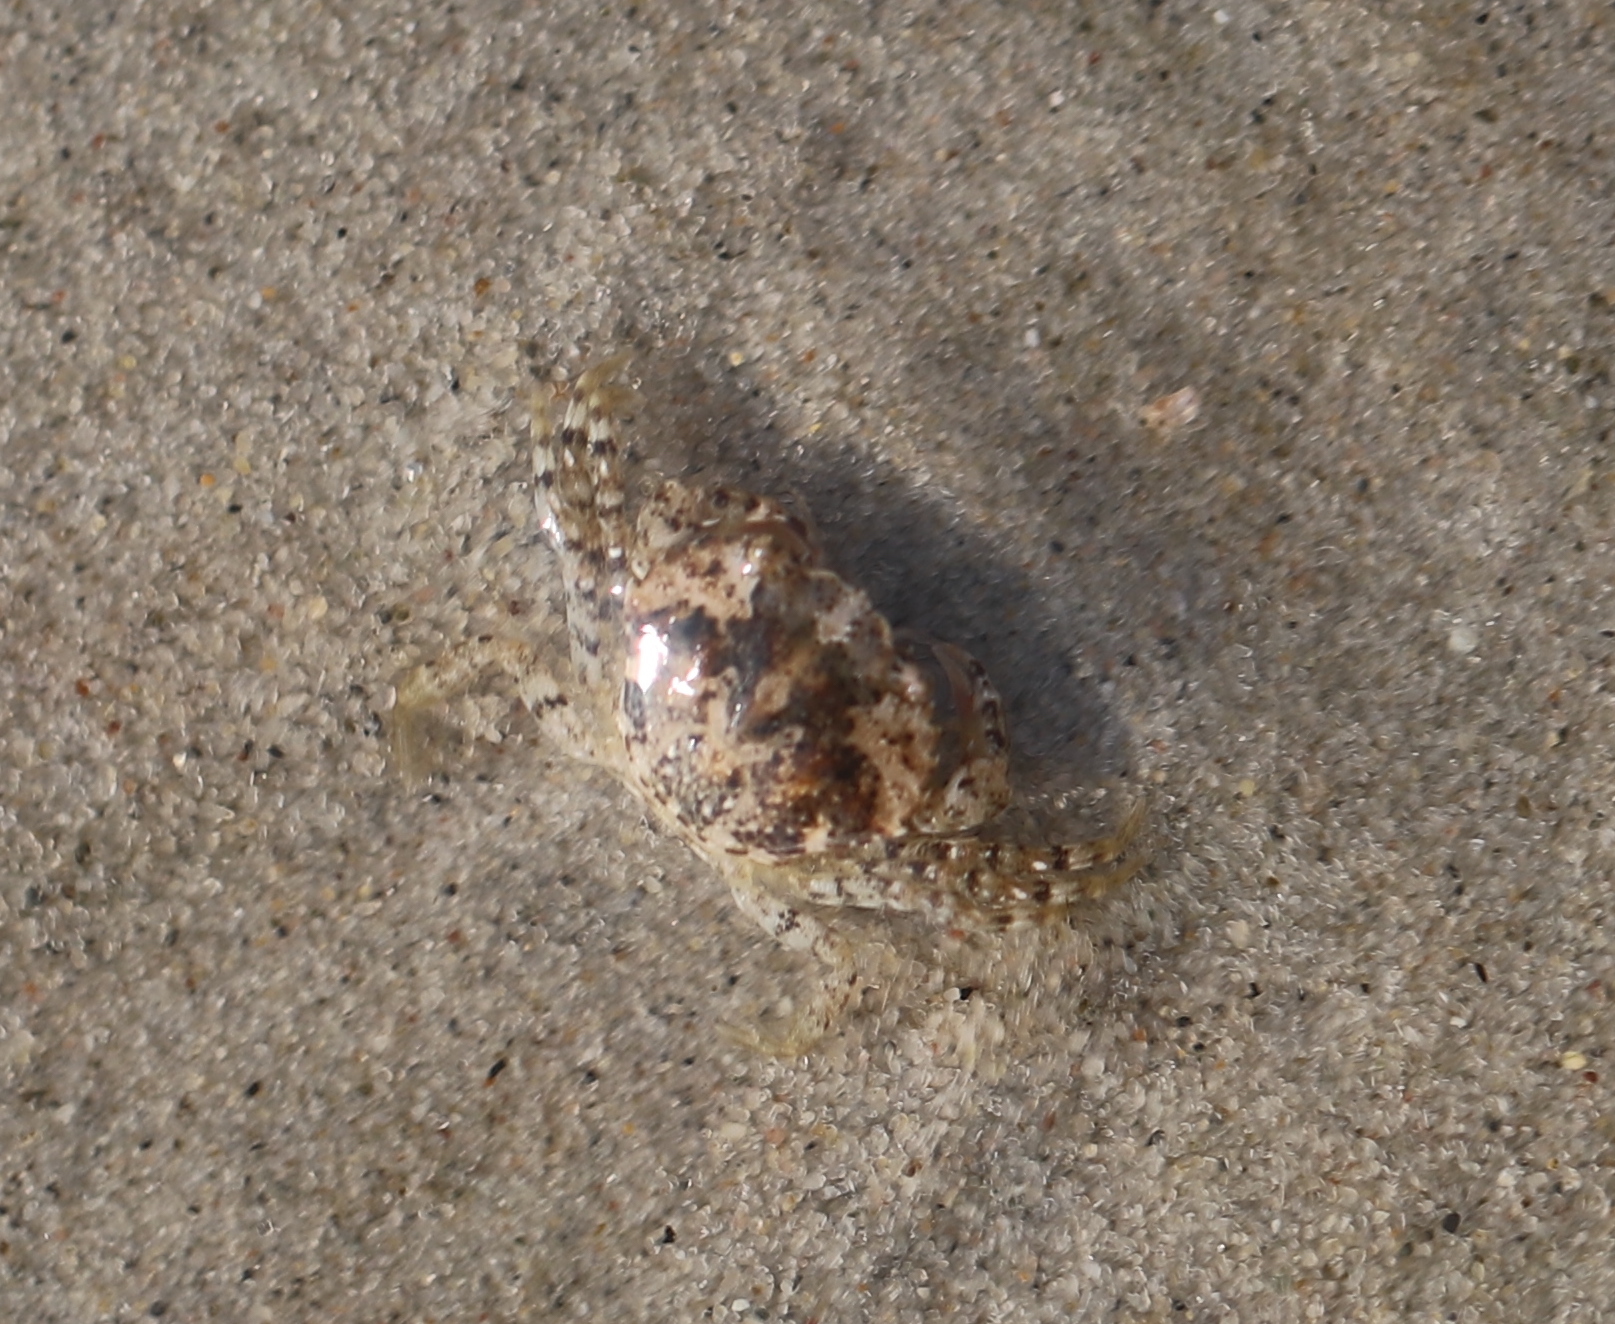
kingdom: Animalia
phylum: Arthropoda
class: Malacostraca
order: Decapoda
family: Carcinidae
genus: Carcinus
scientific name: Carcinus maenas
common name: European green crab
